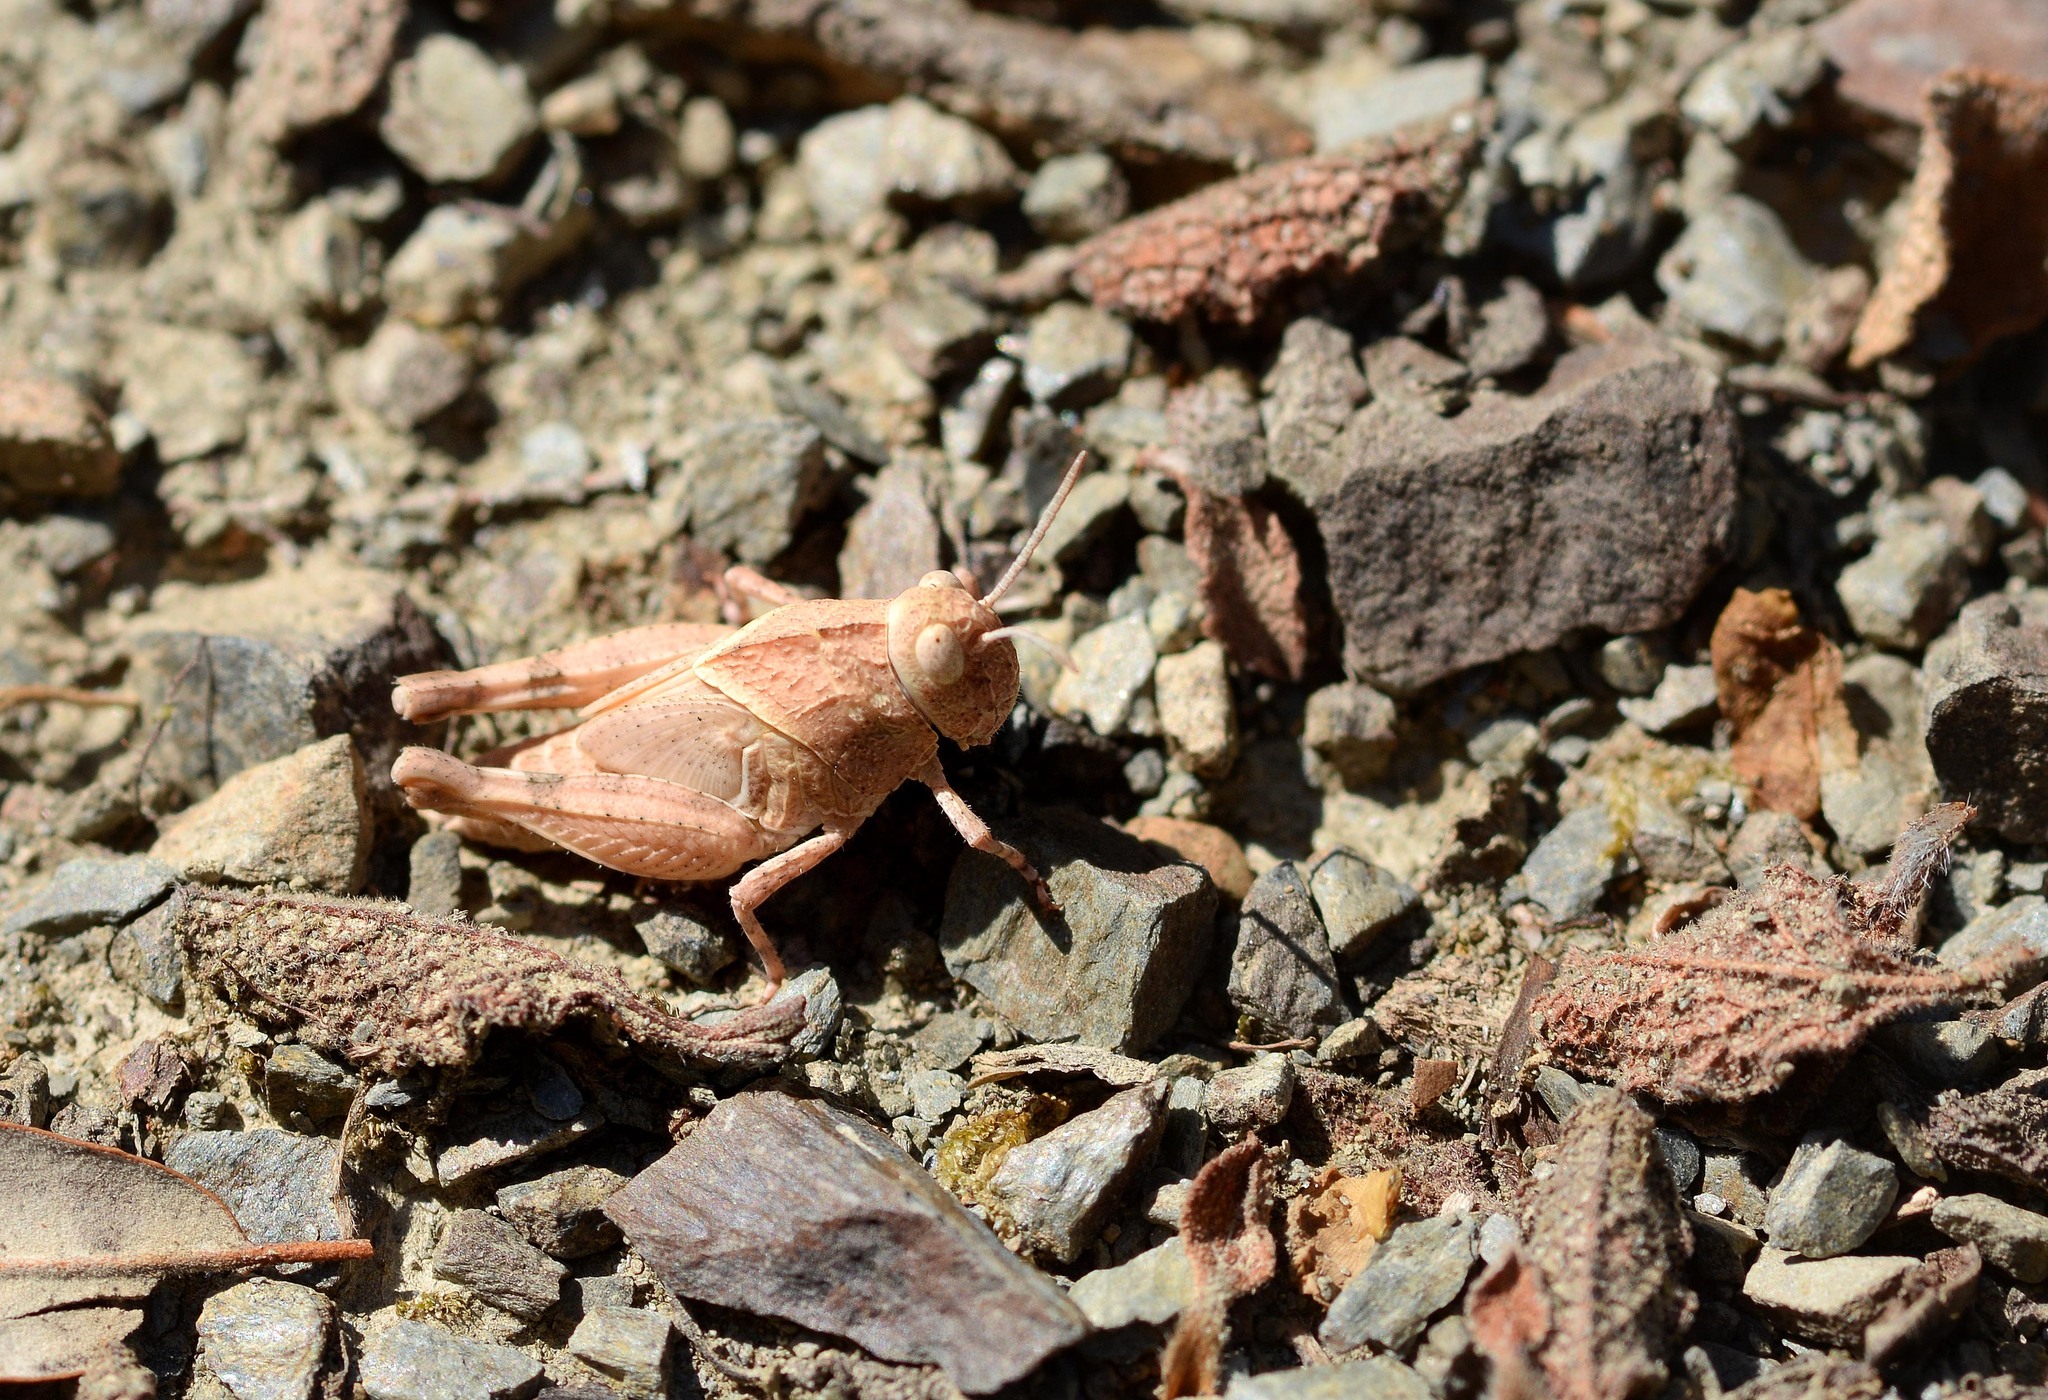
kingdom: Animalia
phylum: Arthropoda
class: Insecta
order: Orthoptera
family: Acrididae
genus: Oedipoda
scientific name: Oedipoda
